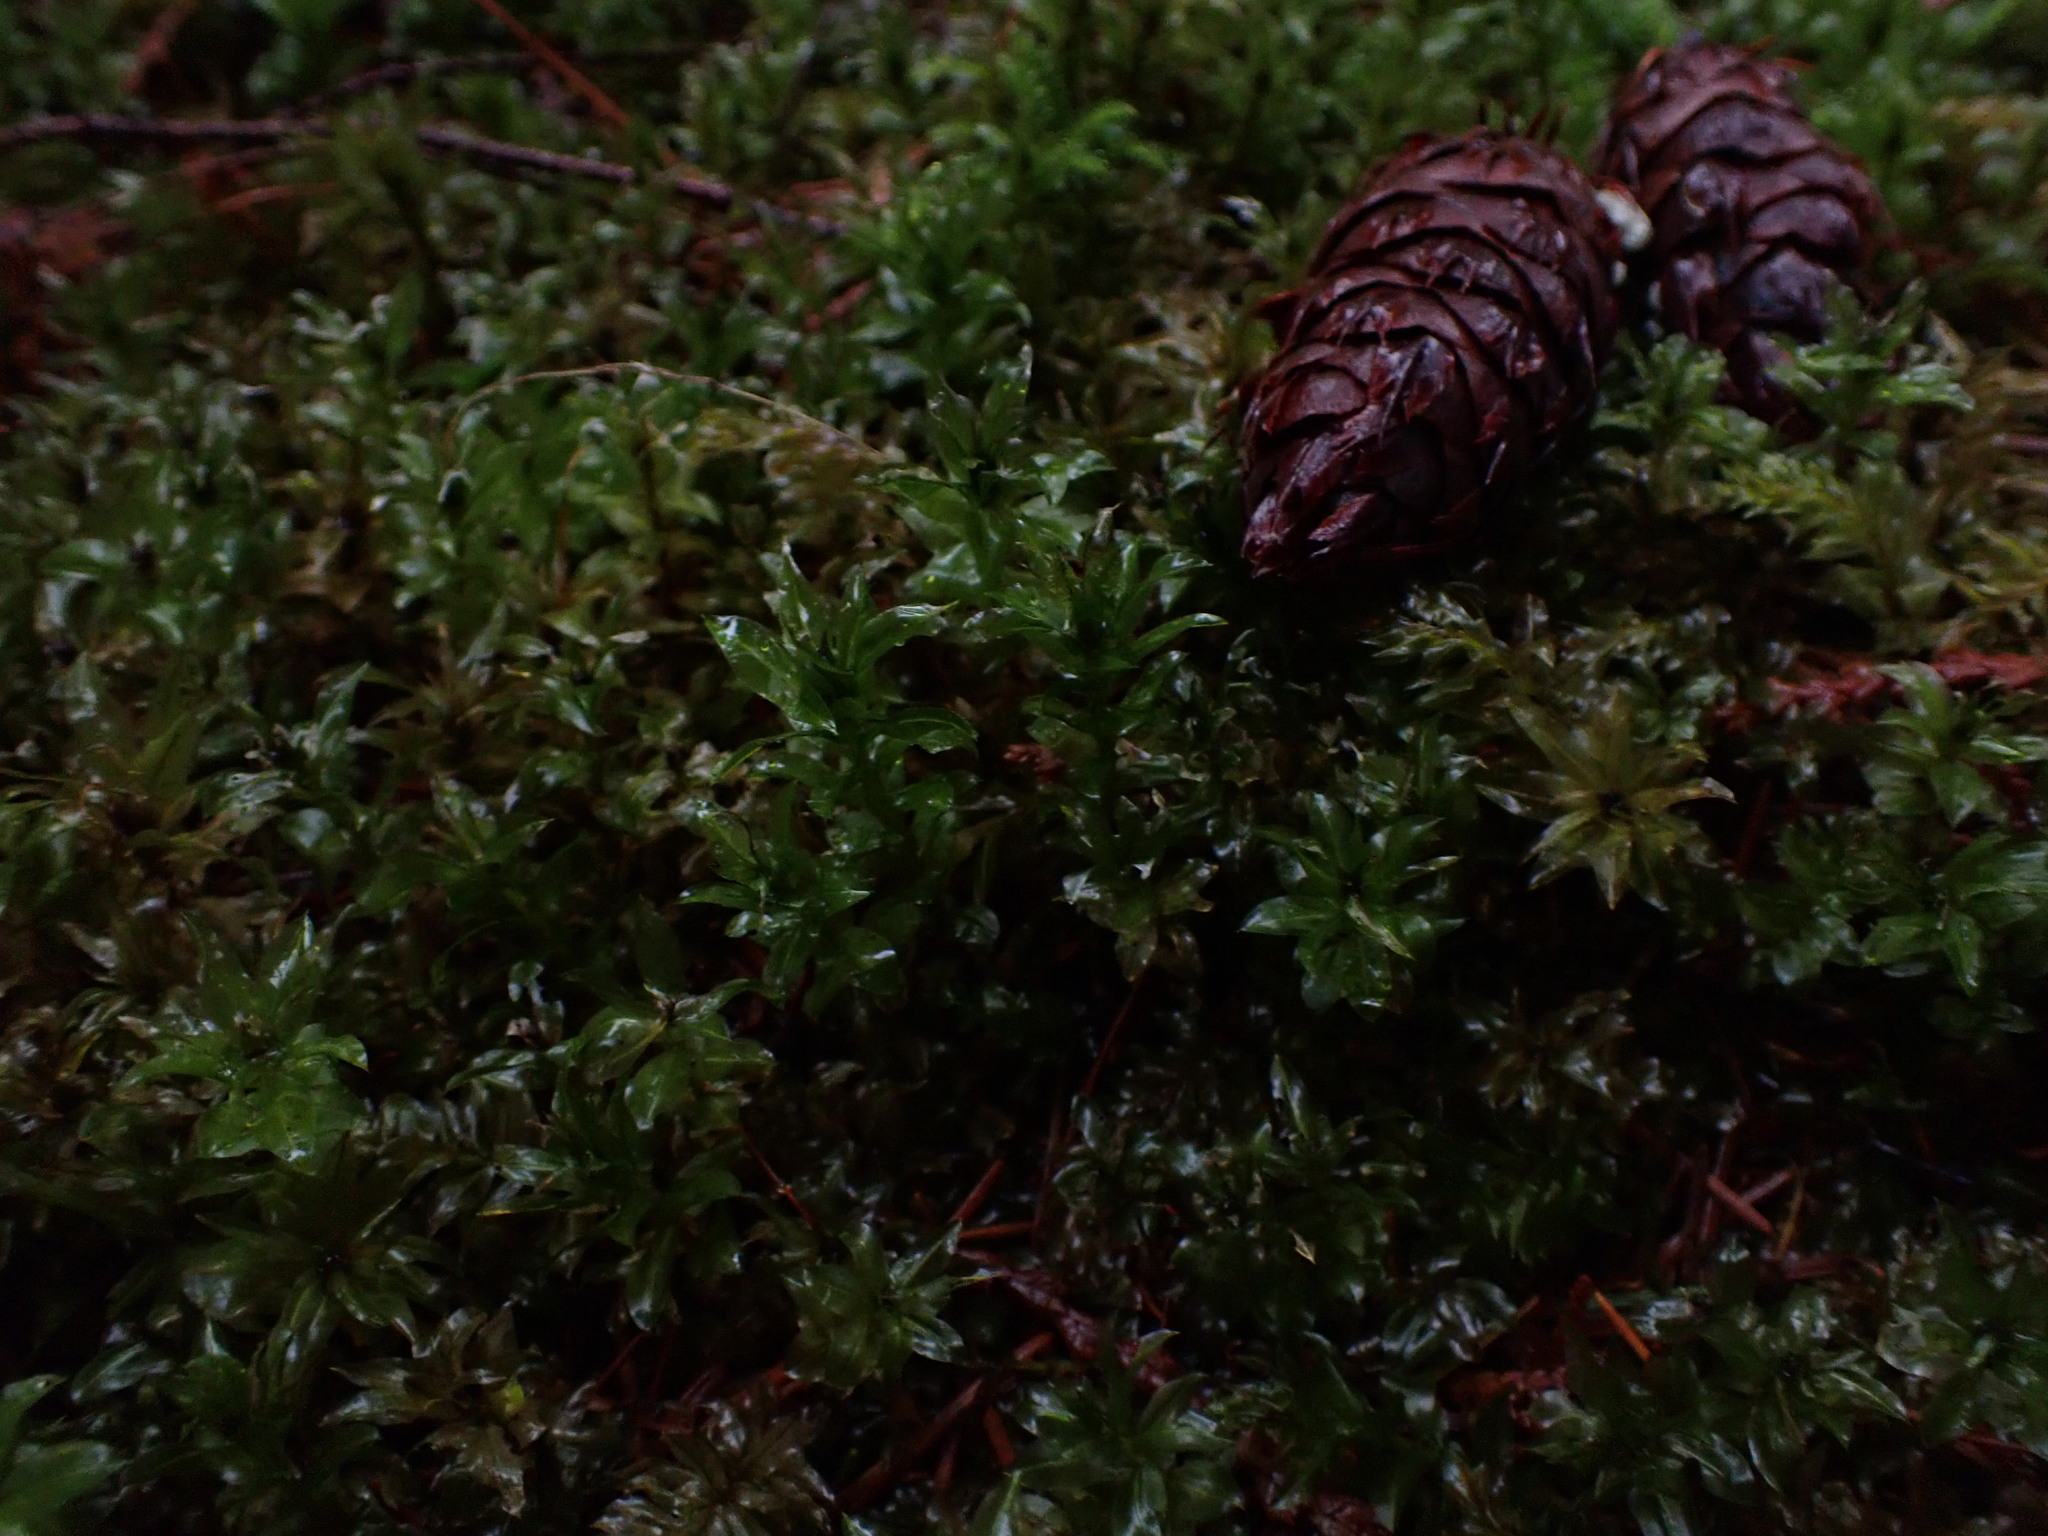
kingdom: Plantae
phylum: Bryophyta
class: Bryopsida
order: Bryales
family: Mniaceae
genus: Plagiomnium
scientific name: Plagiomnium insigne
